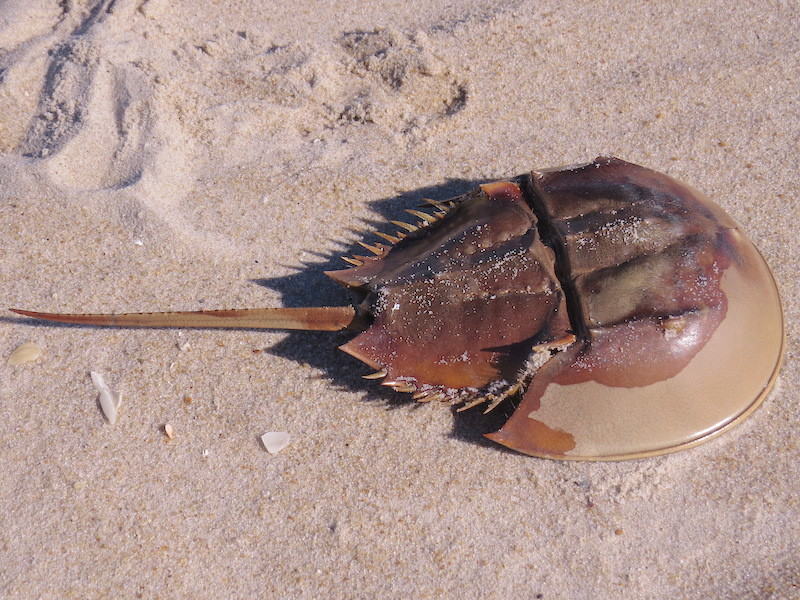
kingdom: Animalia
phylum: Arthropoda
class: Merostomata
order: Xiphosurida
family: Limulidae
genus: Limulus
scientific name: Limulus polyphemus
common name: Horseshoe crab
